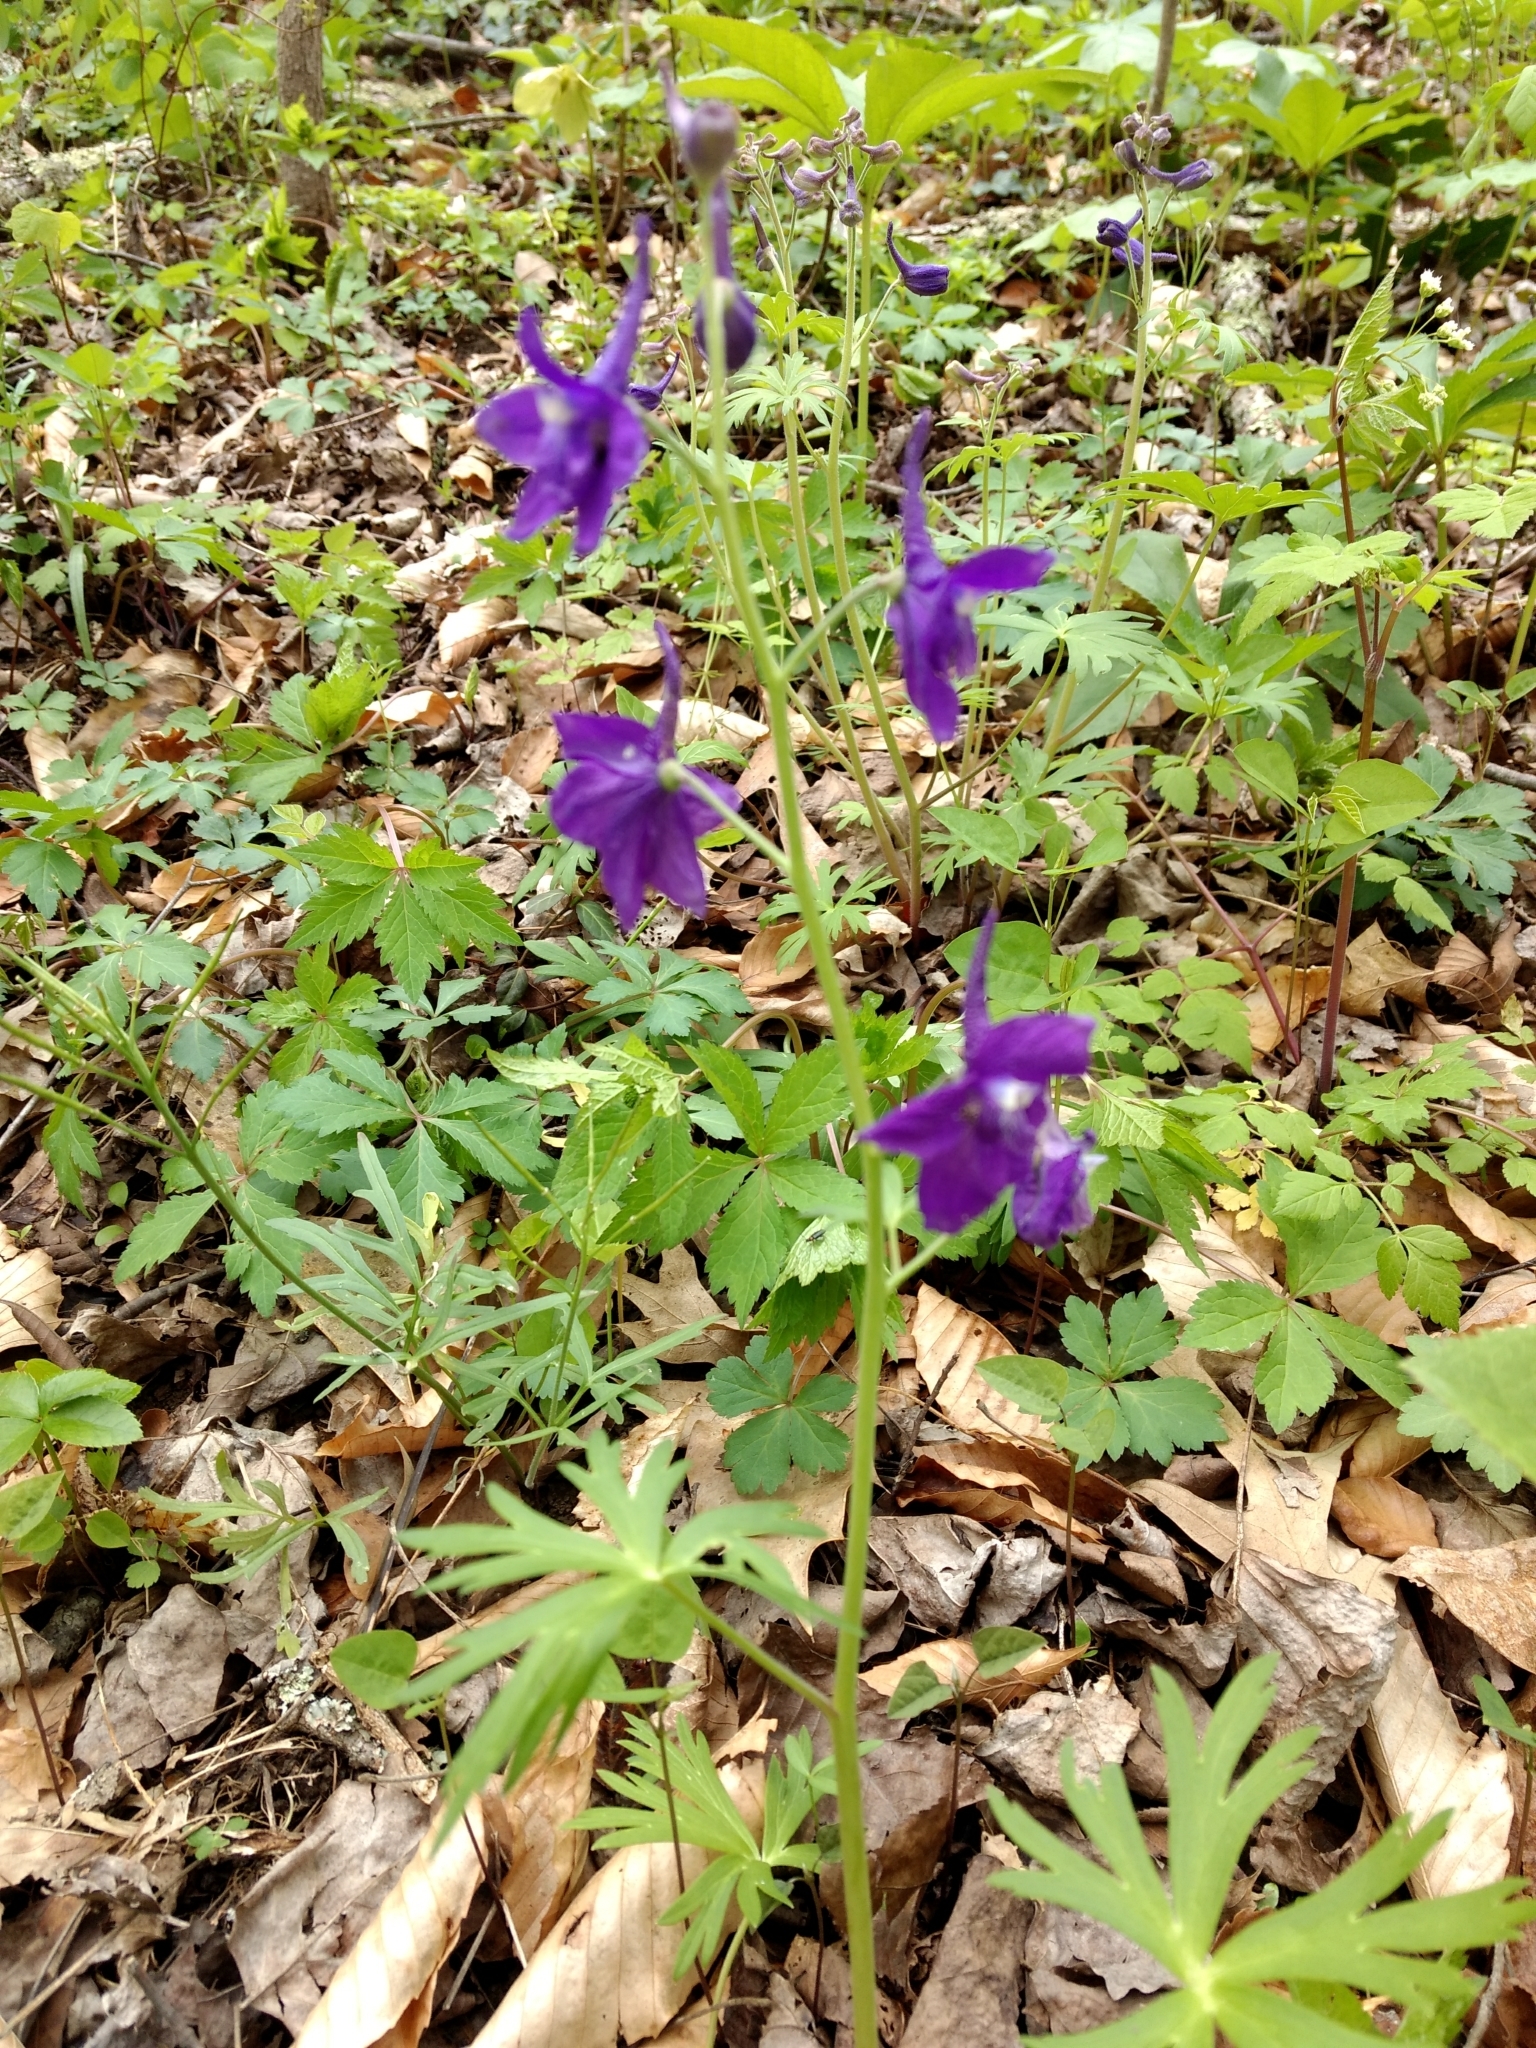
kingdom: Plantae
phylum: Tracheophyta
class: Magnoliopsida
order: Ranunculales
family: Ranunculaceae
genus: Delphinium
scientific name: Delphinium tricorne
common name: Dwarf larkspur
